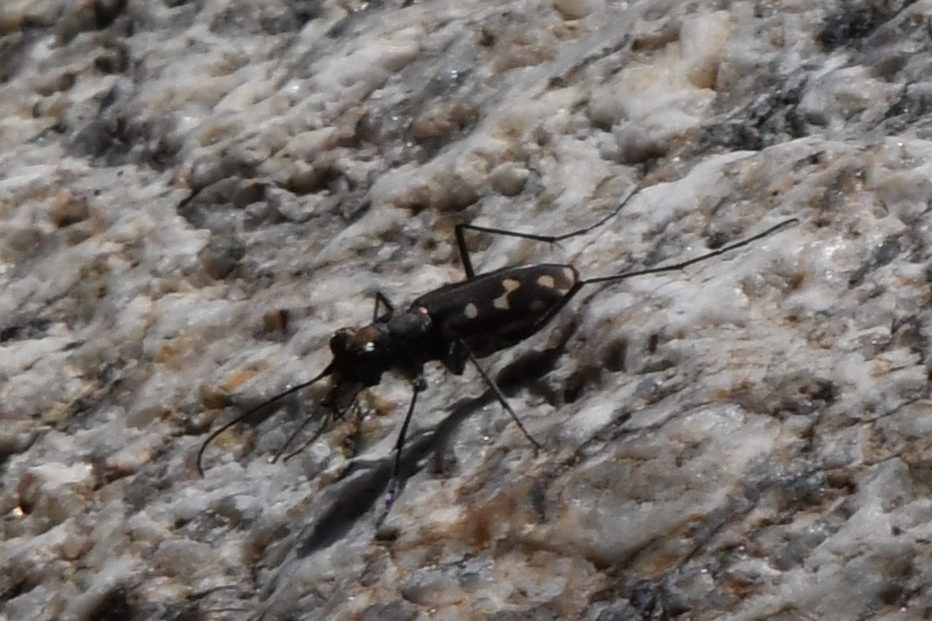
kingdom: Animalia
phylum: Arthropoda
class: Insecta
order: Coleoptera
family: Carabidae
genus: Cicindela
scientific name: Cicindela sedecimpunctata
